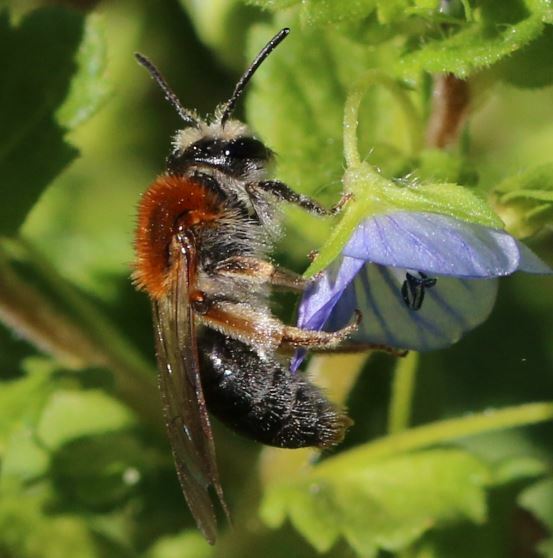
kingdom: Animalia
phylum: Arthropoda
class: Insecta
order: Hymenoptera
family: Andrenidae
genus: Andrena
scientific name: Andrena haemorrhoa
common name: Early mining bee
